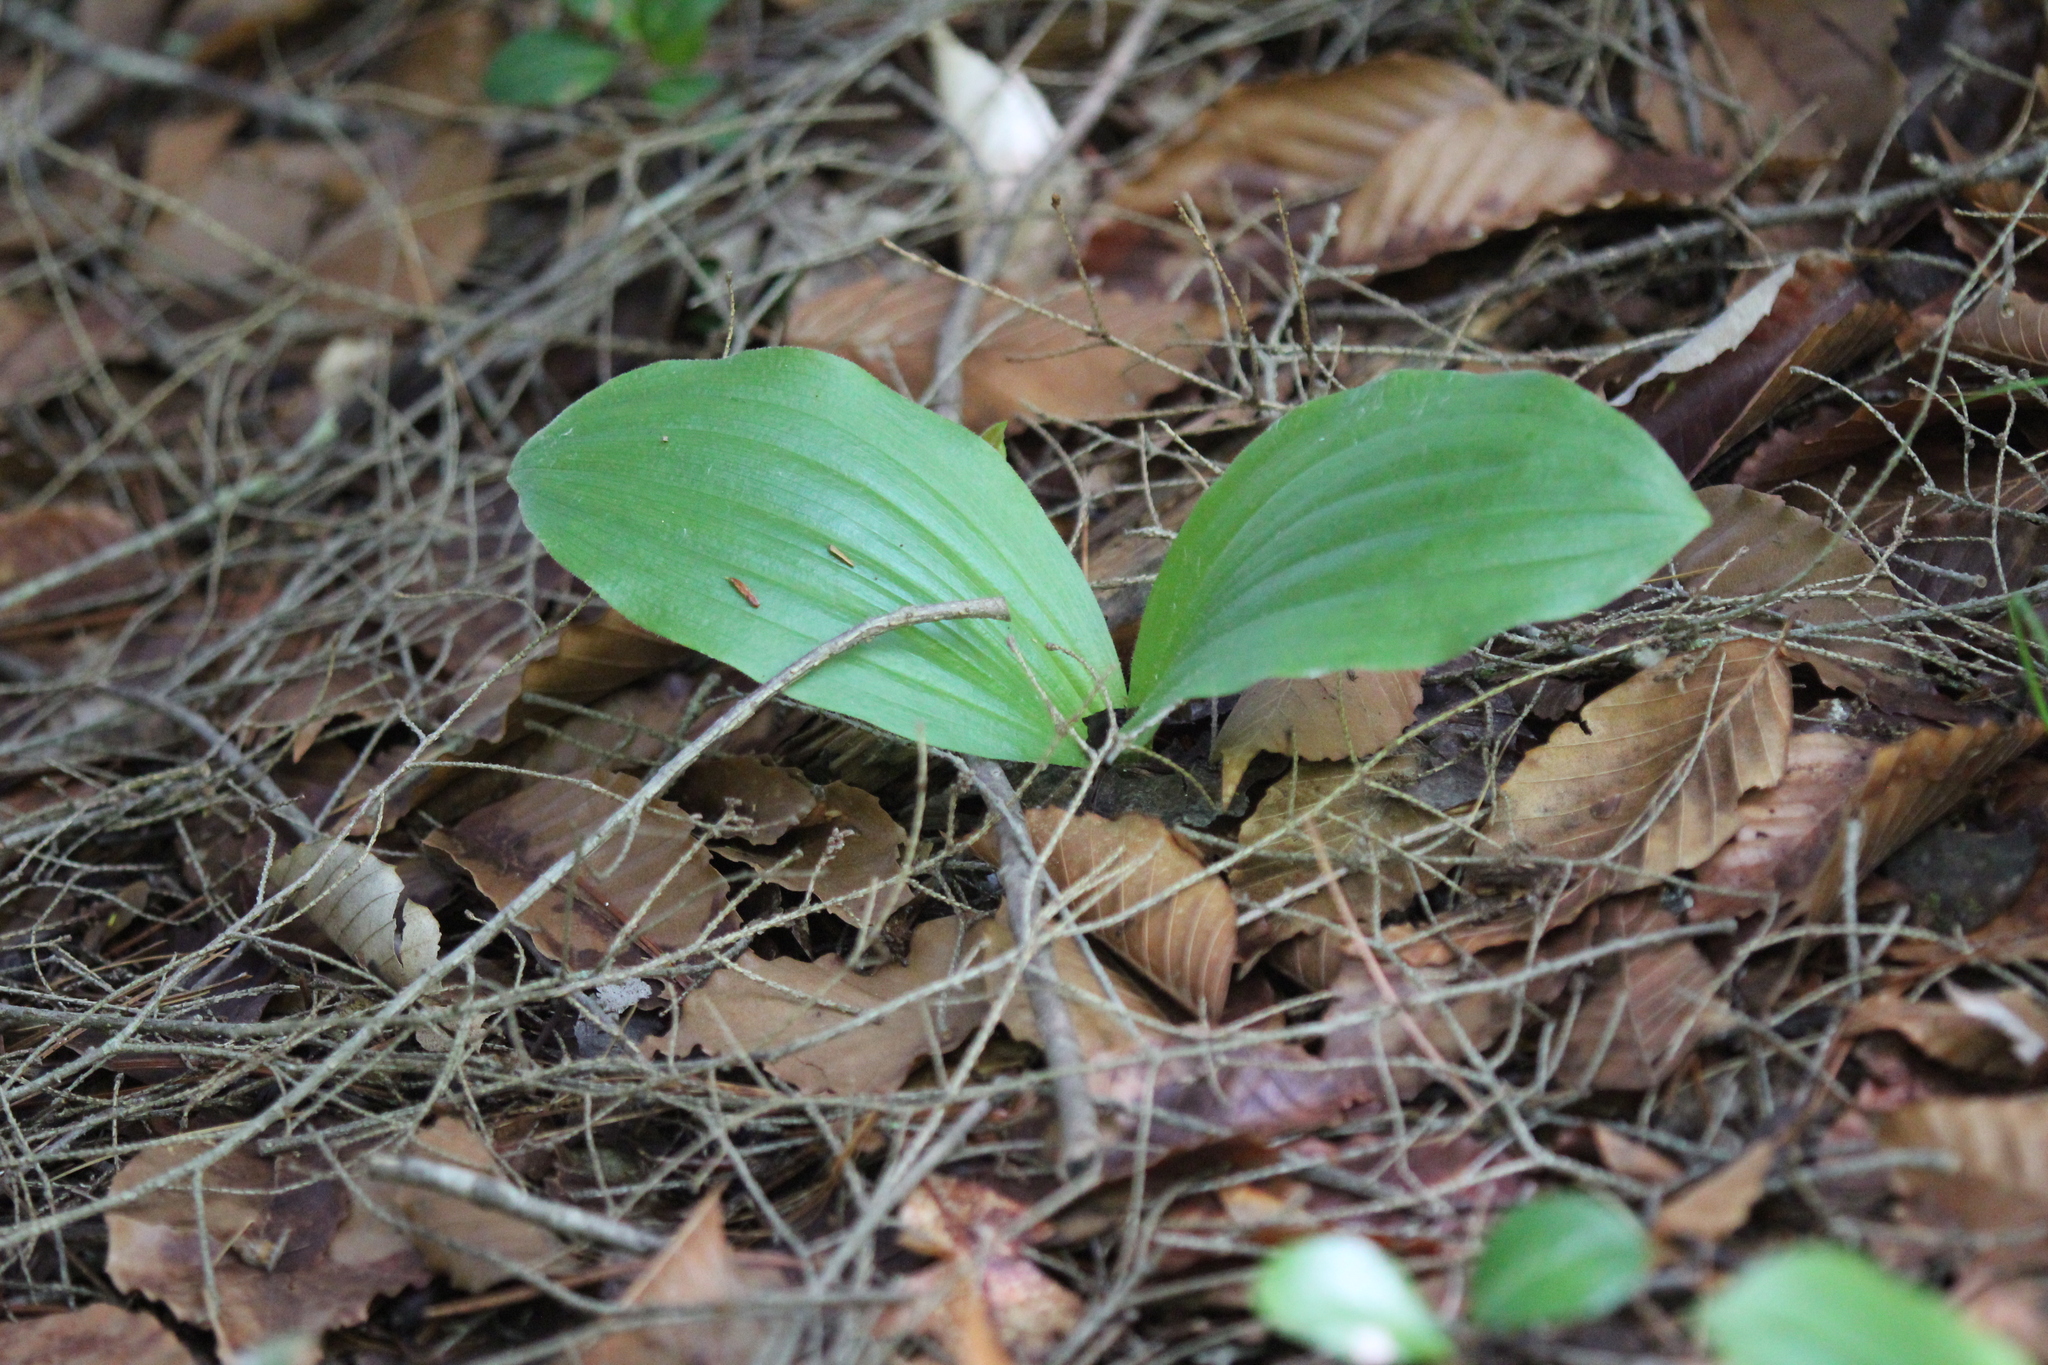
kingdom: Plantae
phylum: Tracheophyta
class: Liliopsida
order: Asparagales
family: Orchidaceae
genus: Cypripedium
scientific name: Cypripedium acaule
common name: Pink lady's-slipper
